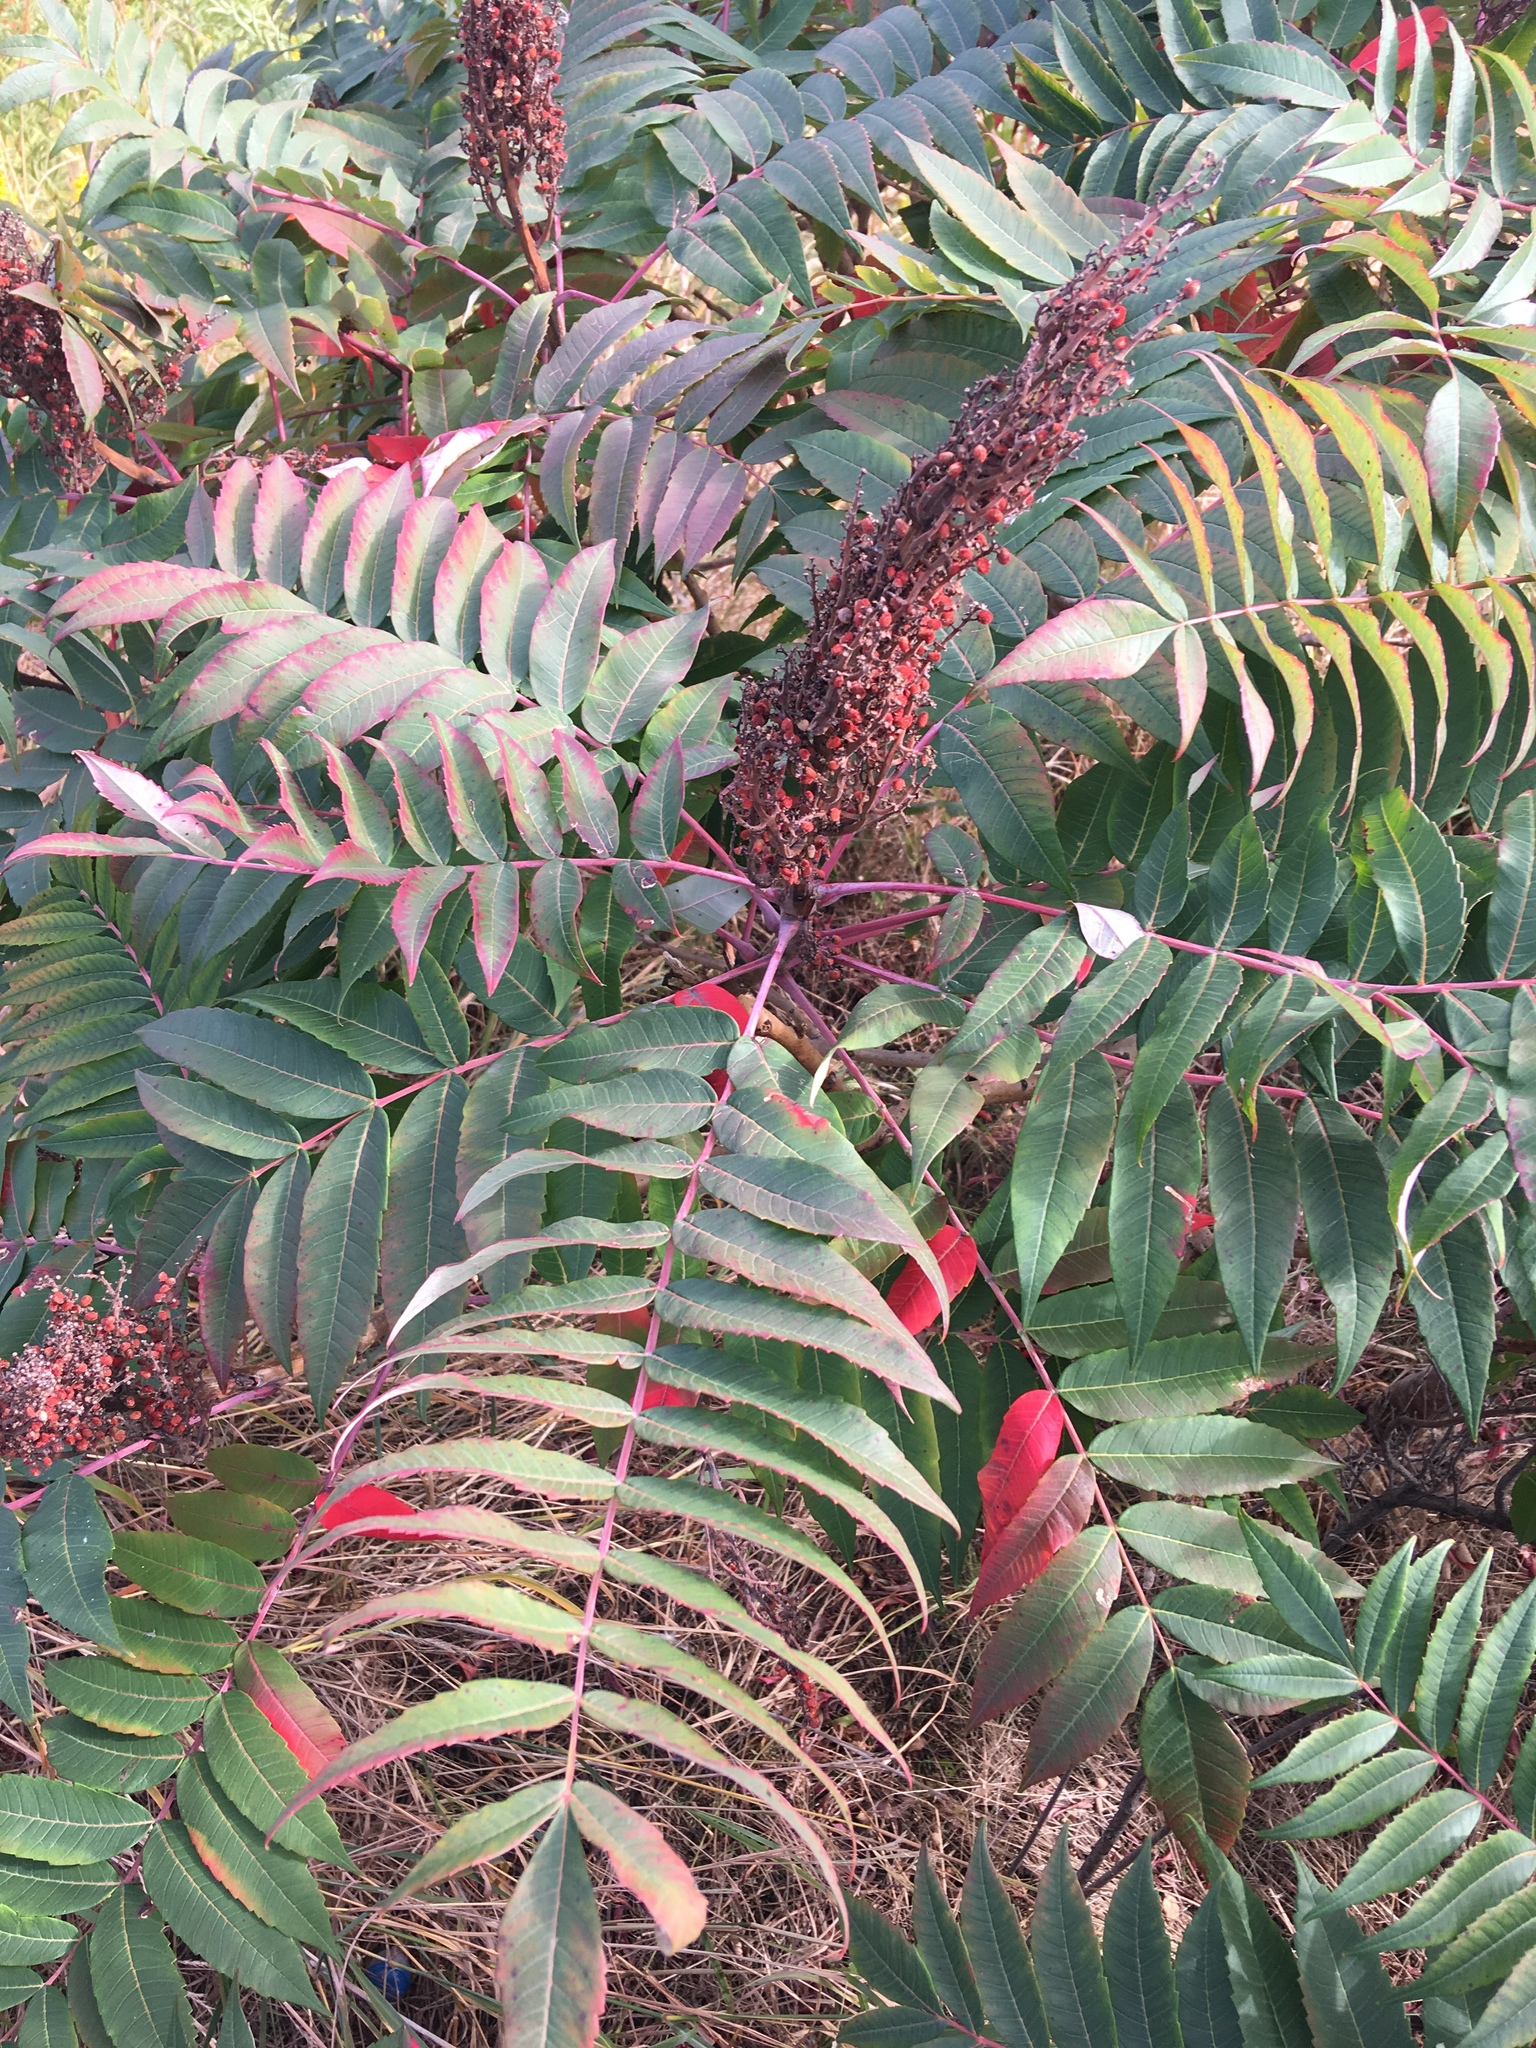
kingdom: Plantae
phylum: Tracheophyta
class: Magnoliopsida
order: Sapindales
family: Anacardiaceae
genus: Rhus
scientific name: Rhus glabra
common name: Scarlet sumac
